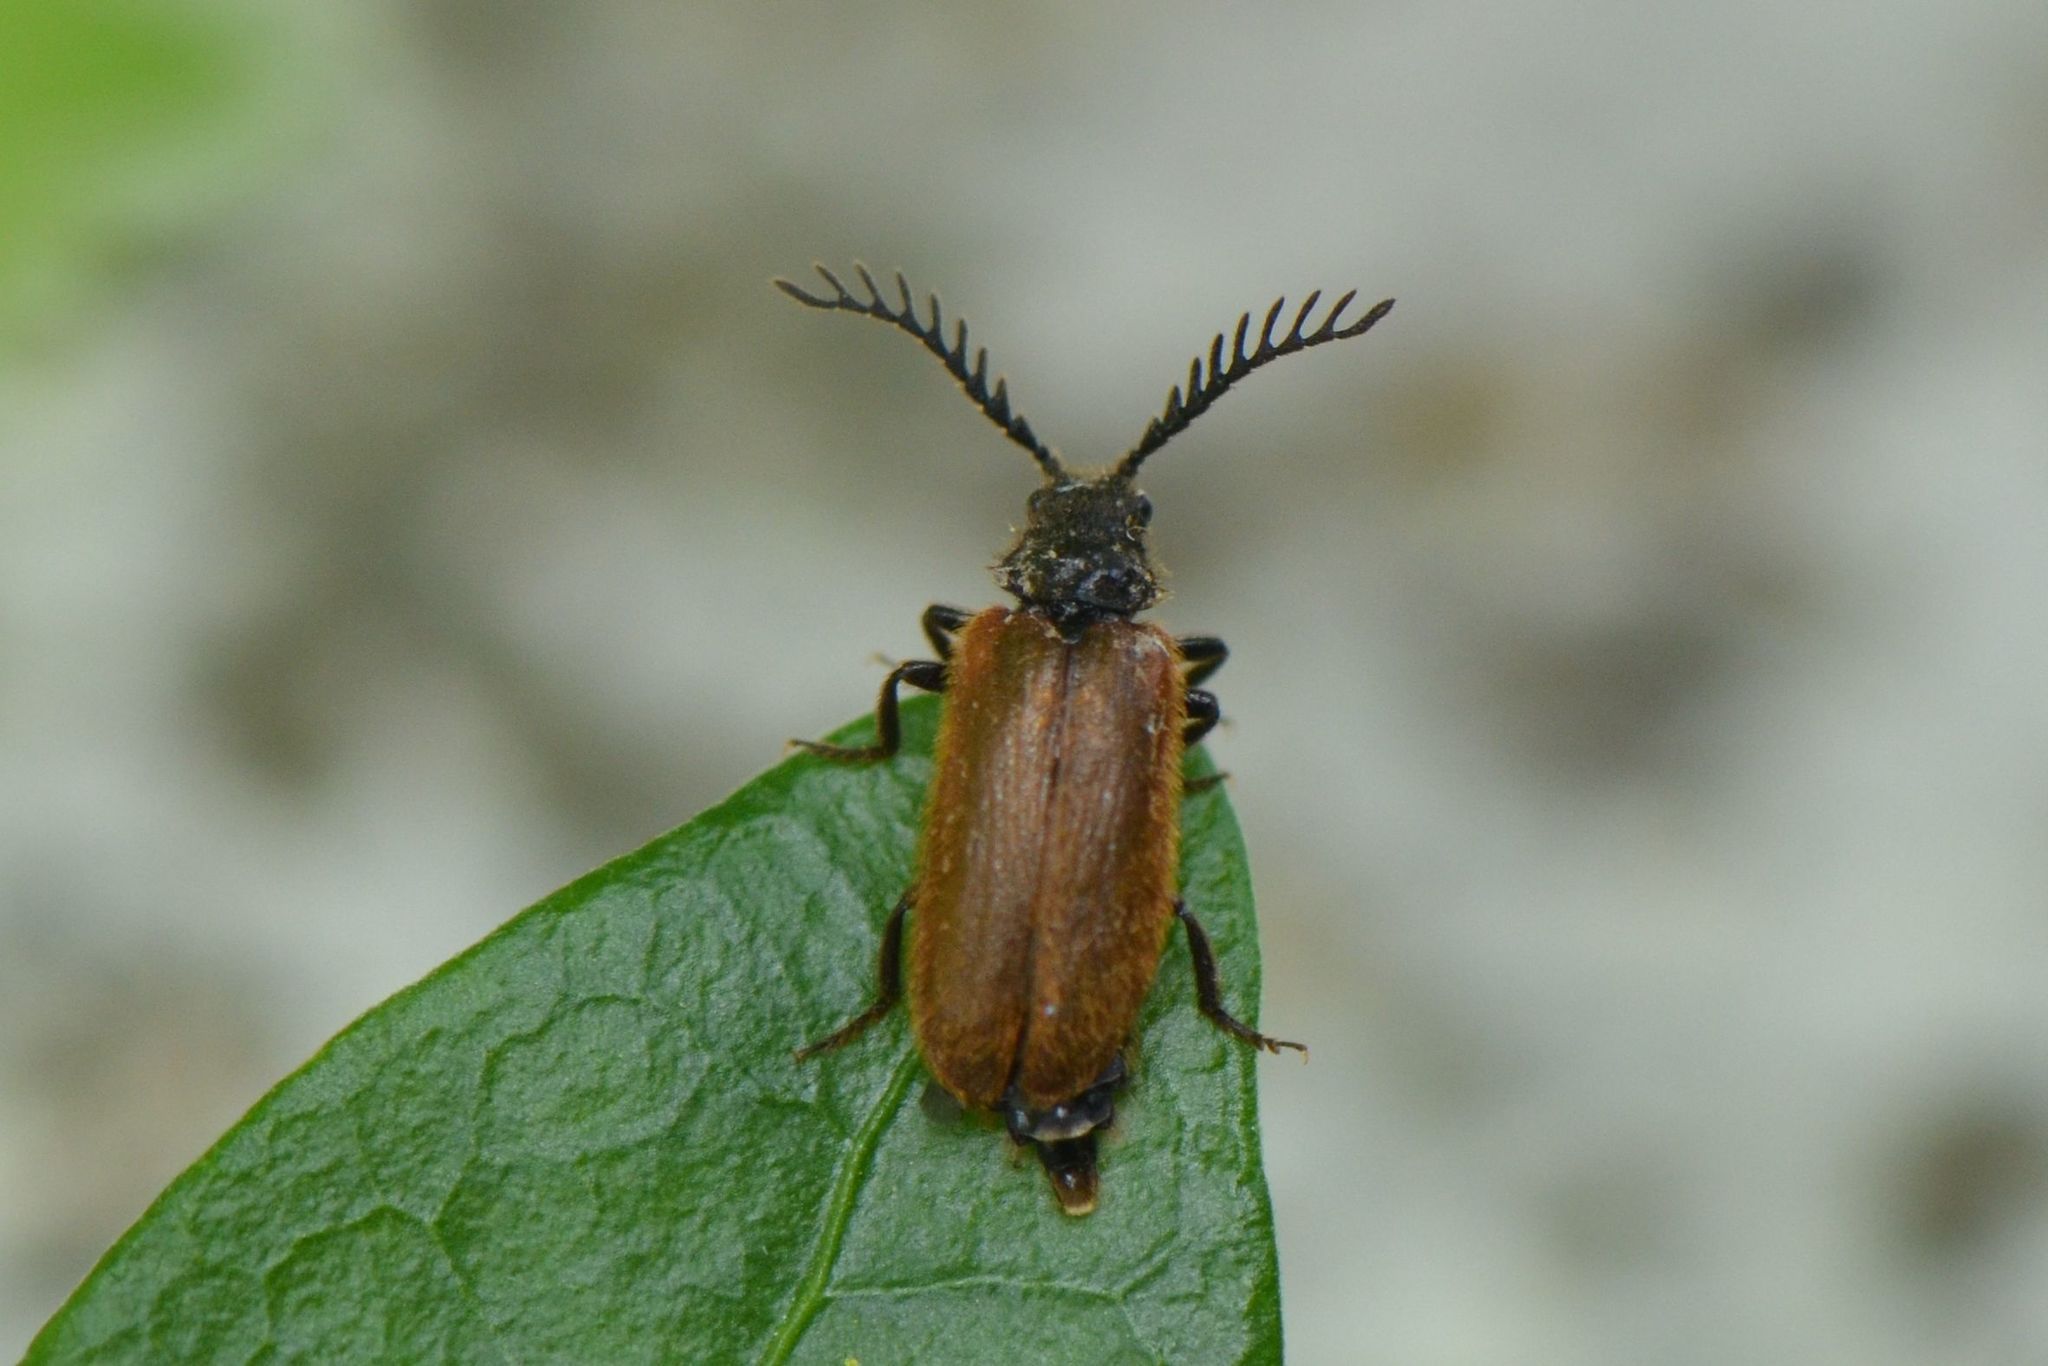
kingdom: Animalia
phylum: Arthropoda
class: Insecta
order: Coleoptera
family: Drilidae
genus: Drilus
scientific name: Drilus flavescens
